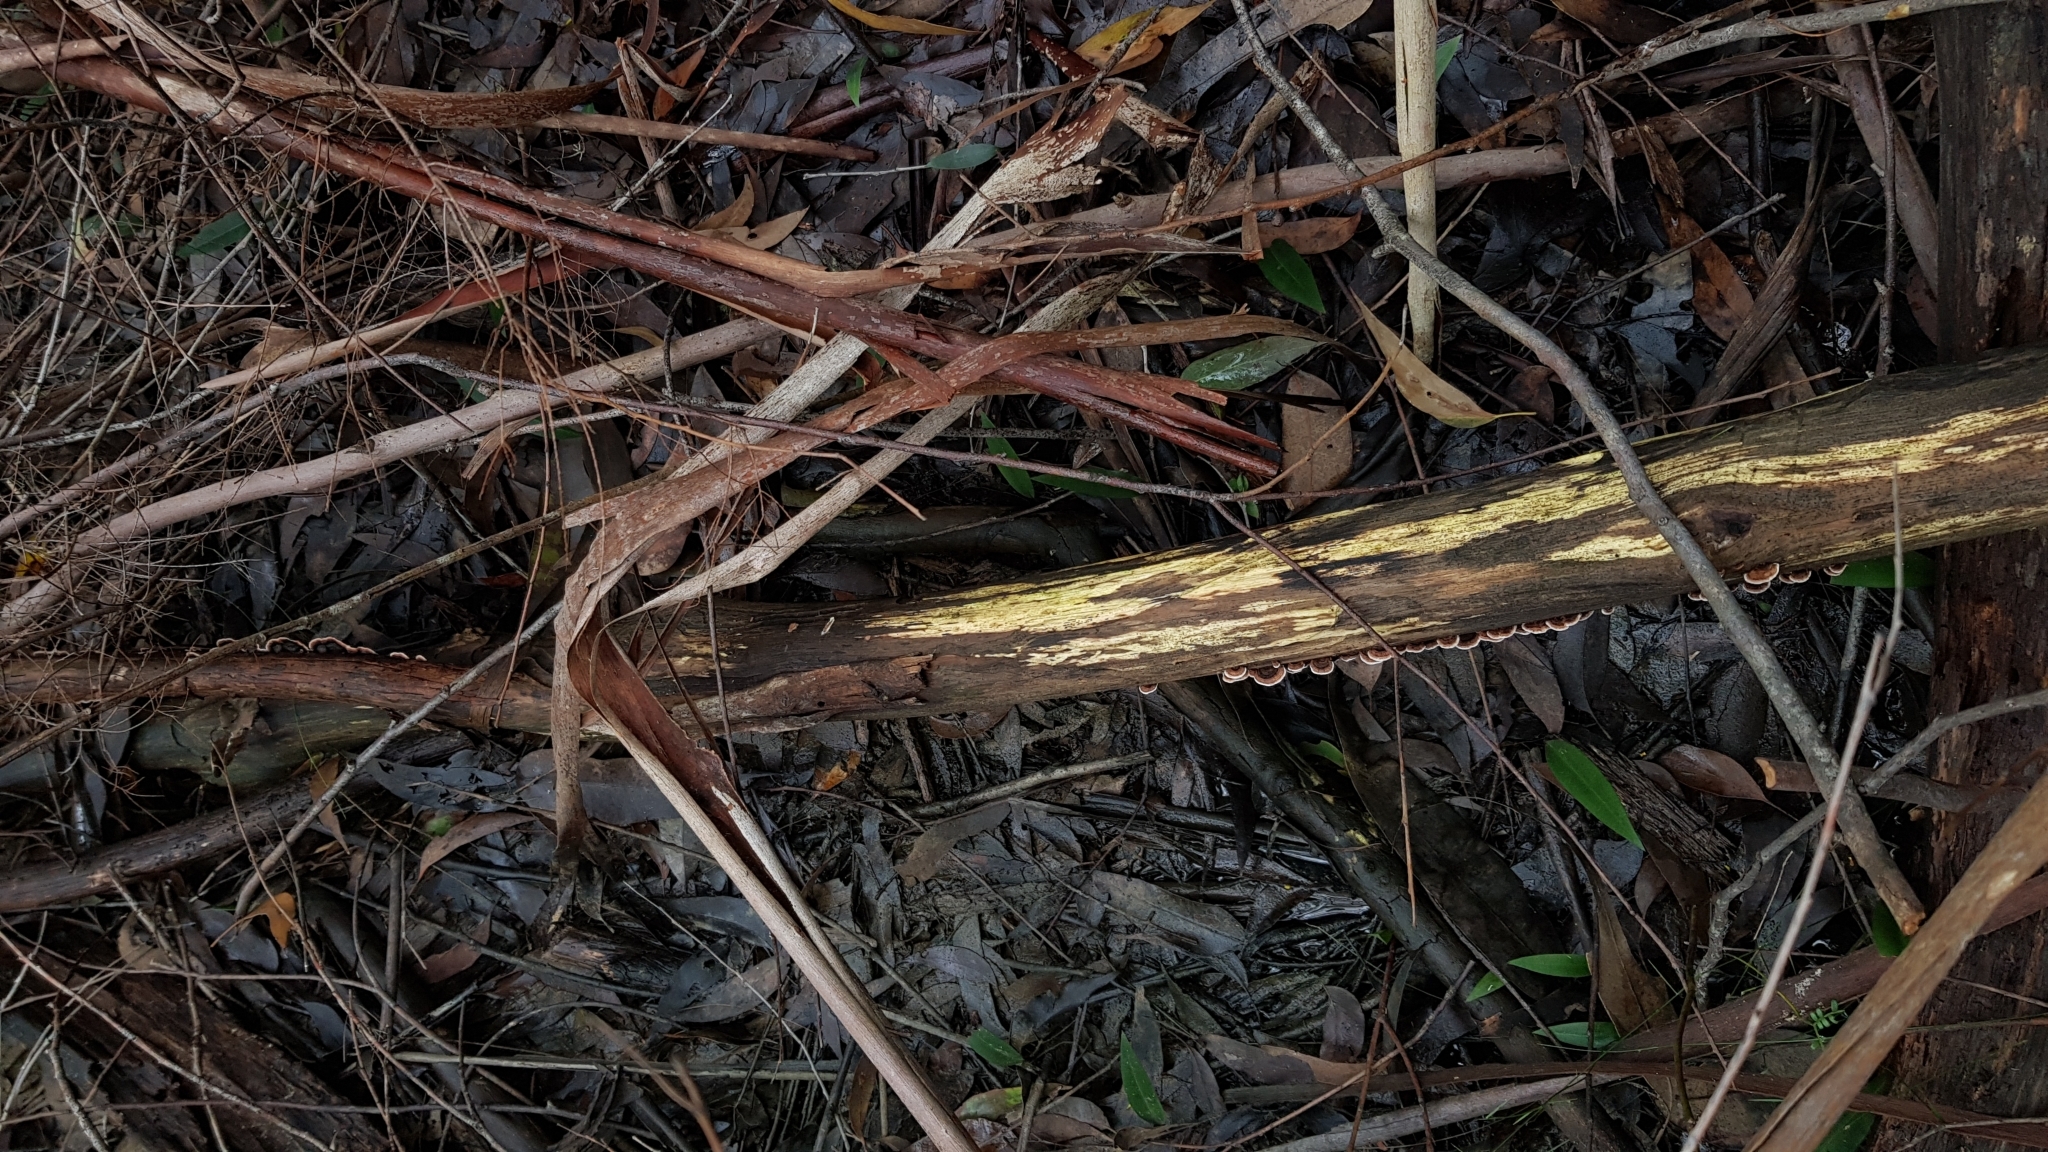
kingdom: Fungi
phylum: Basidiomycota
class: Agaricomycetes
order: Russulales
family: Stereaceae
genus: Xylobolus
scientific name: Xylobolus illudens
